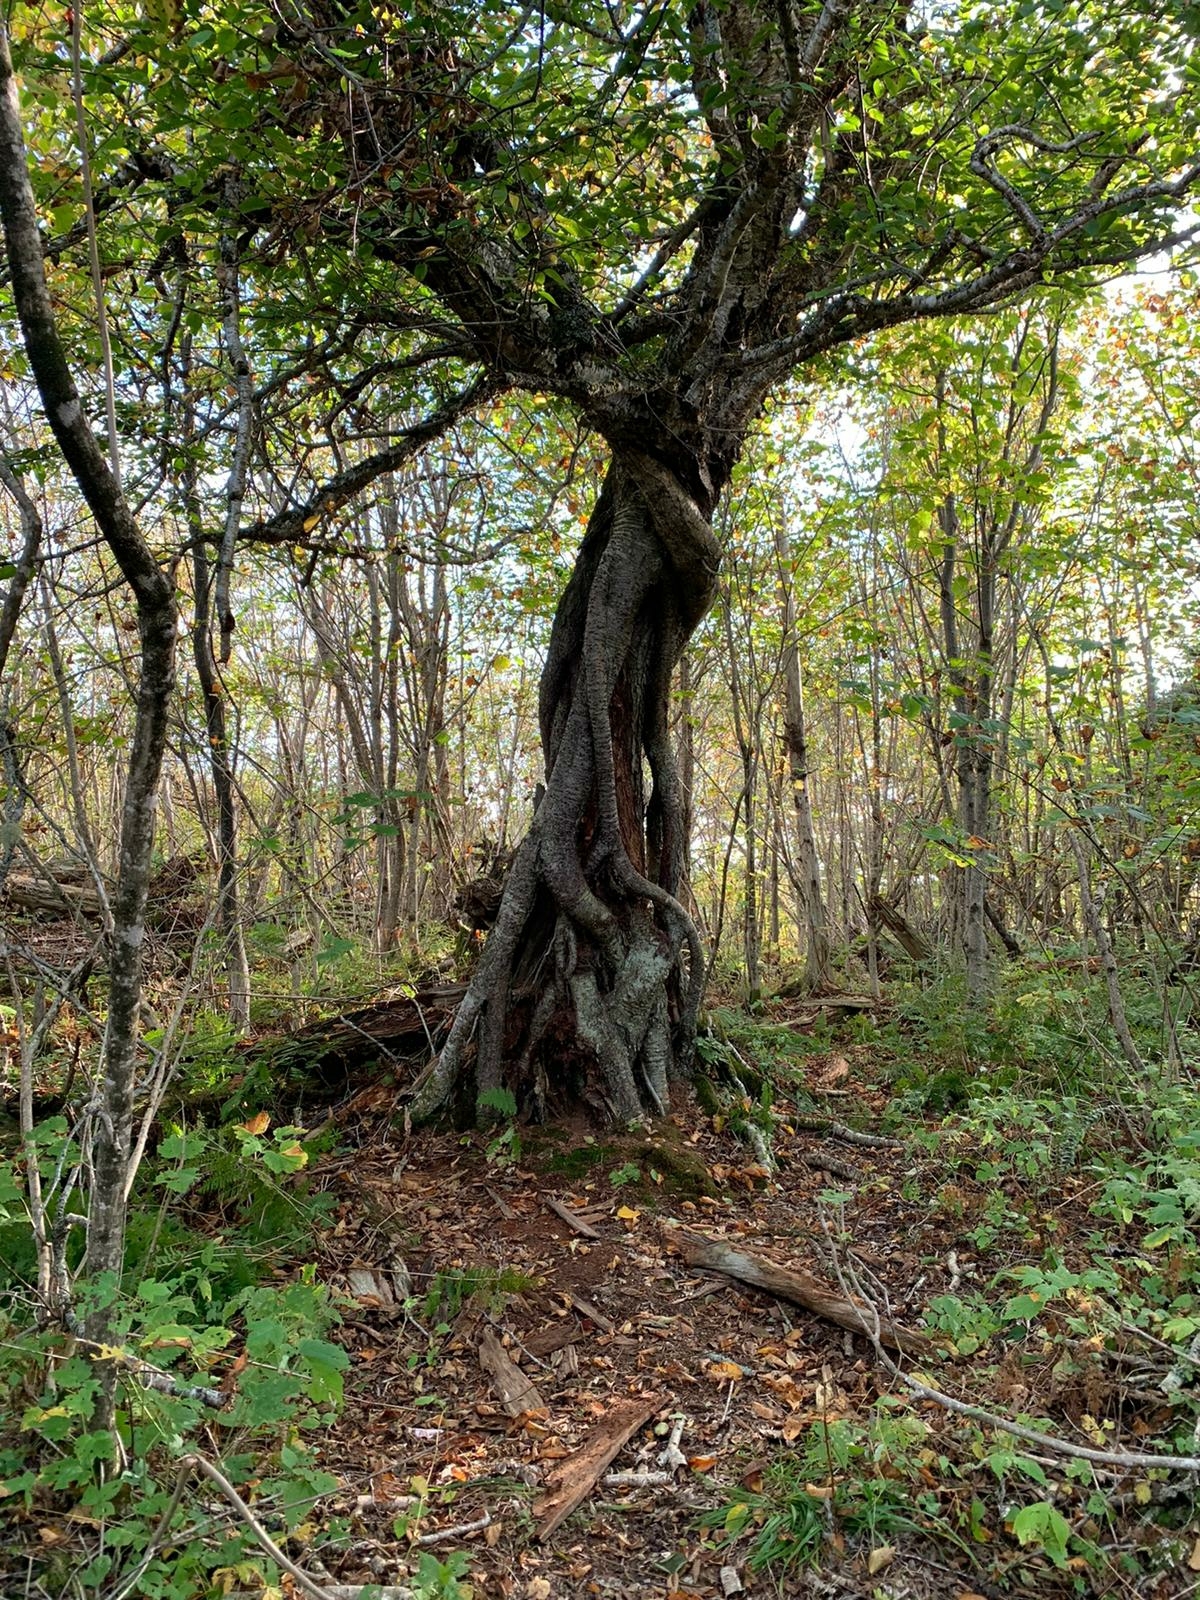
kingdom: Plantae
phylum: Tracheophyta
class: Magnoliopsida
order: Fagales
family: Betulaceae
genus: Betula
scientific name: Betula alleghaniensis
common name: Yellow birch
